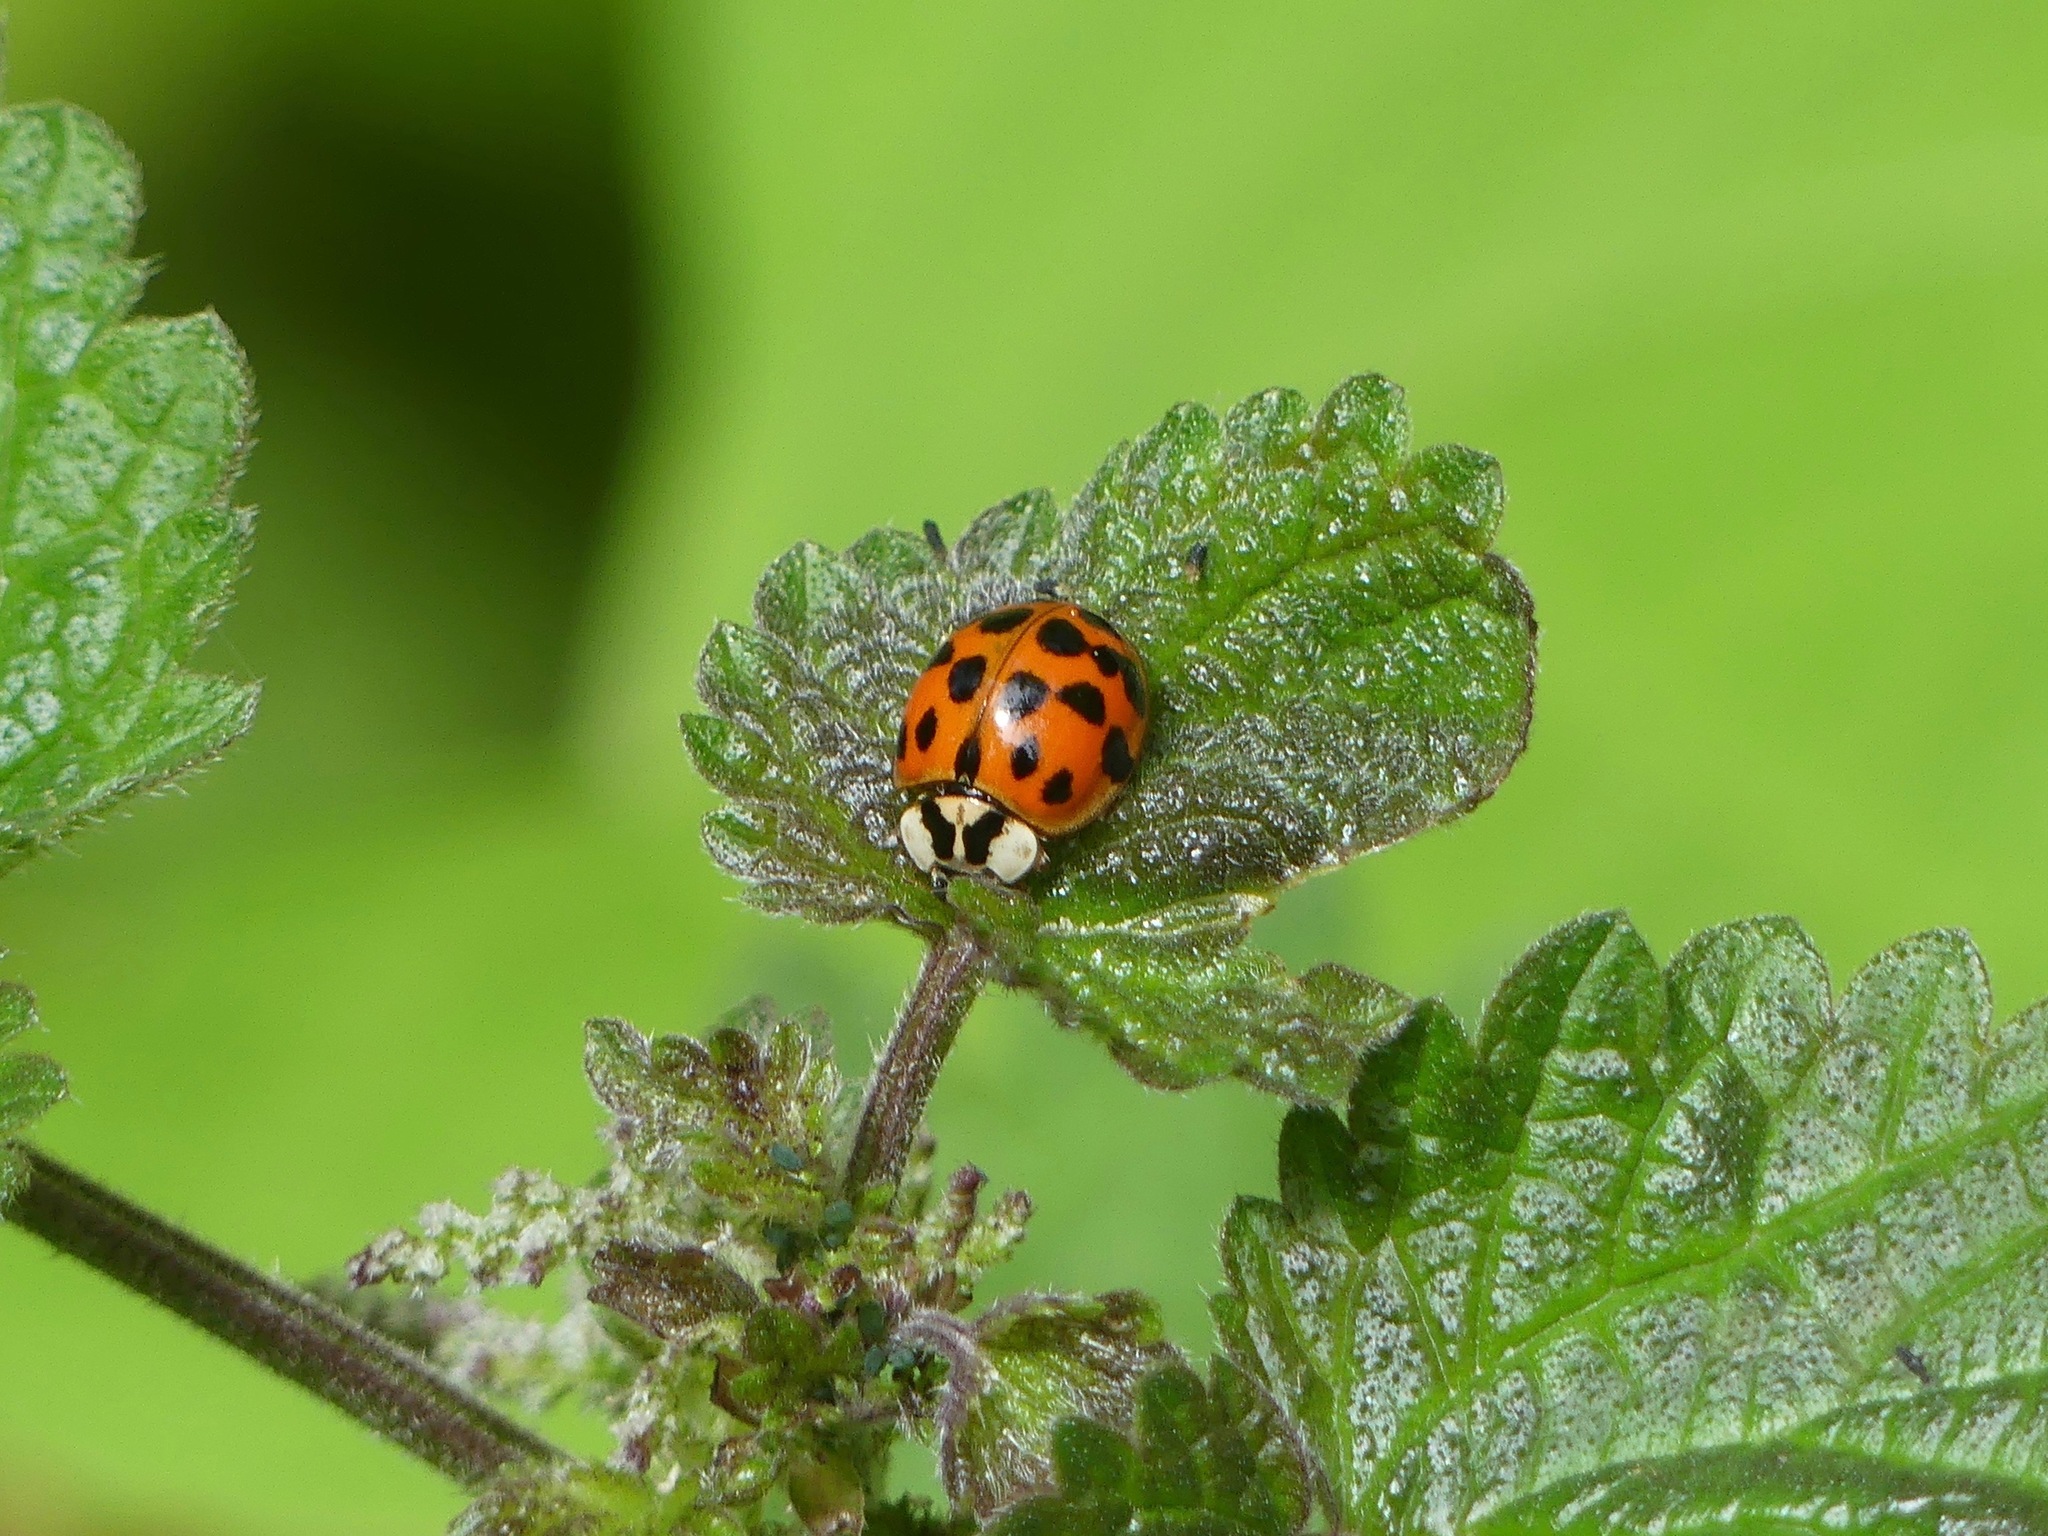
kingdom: Animalia
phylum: Arthropoda
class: Insecta
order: Coleoptera
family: Coccinellidae
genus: Harmonia
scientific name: Harmonia axyridis
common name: Harlequin ladybird
